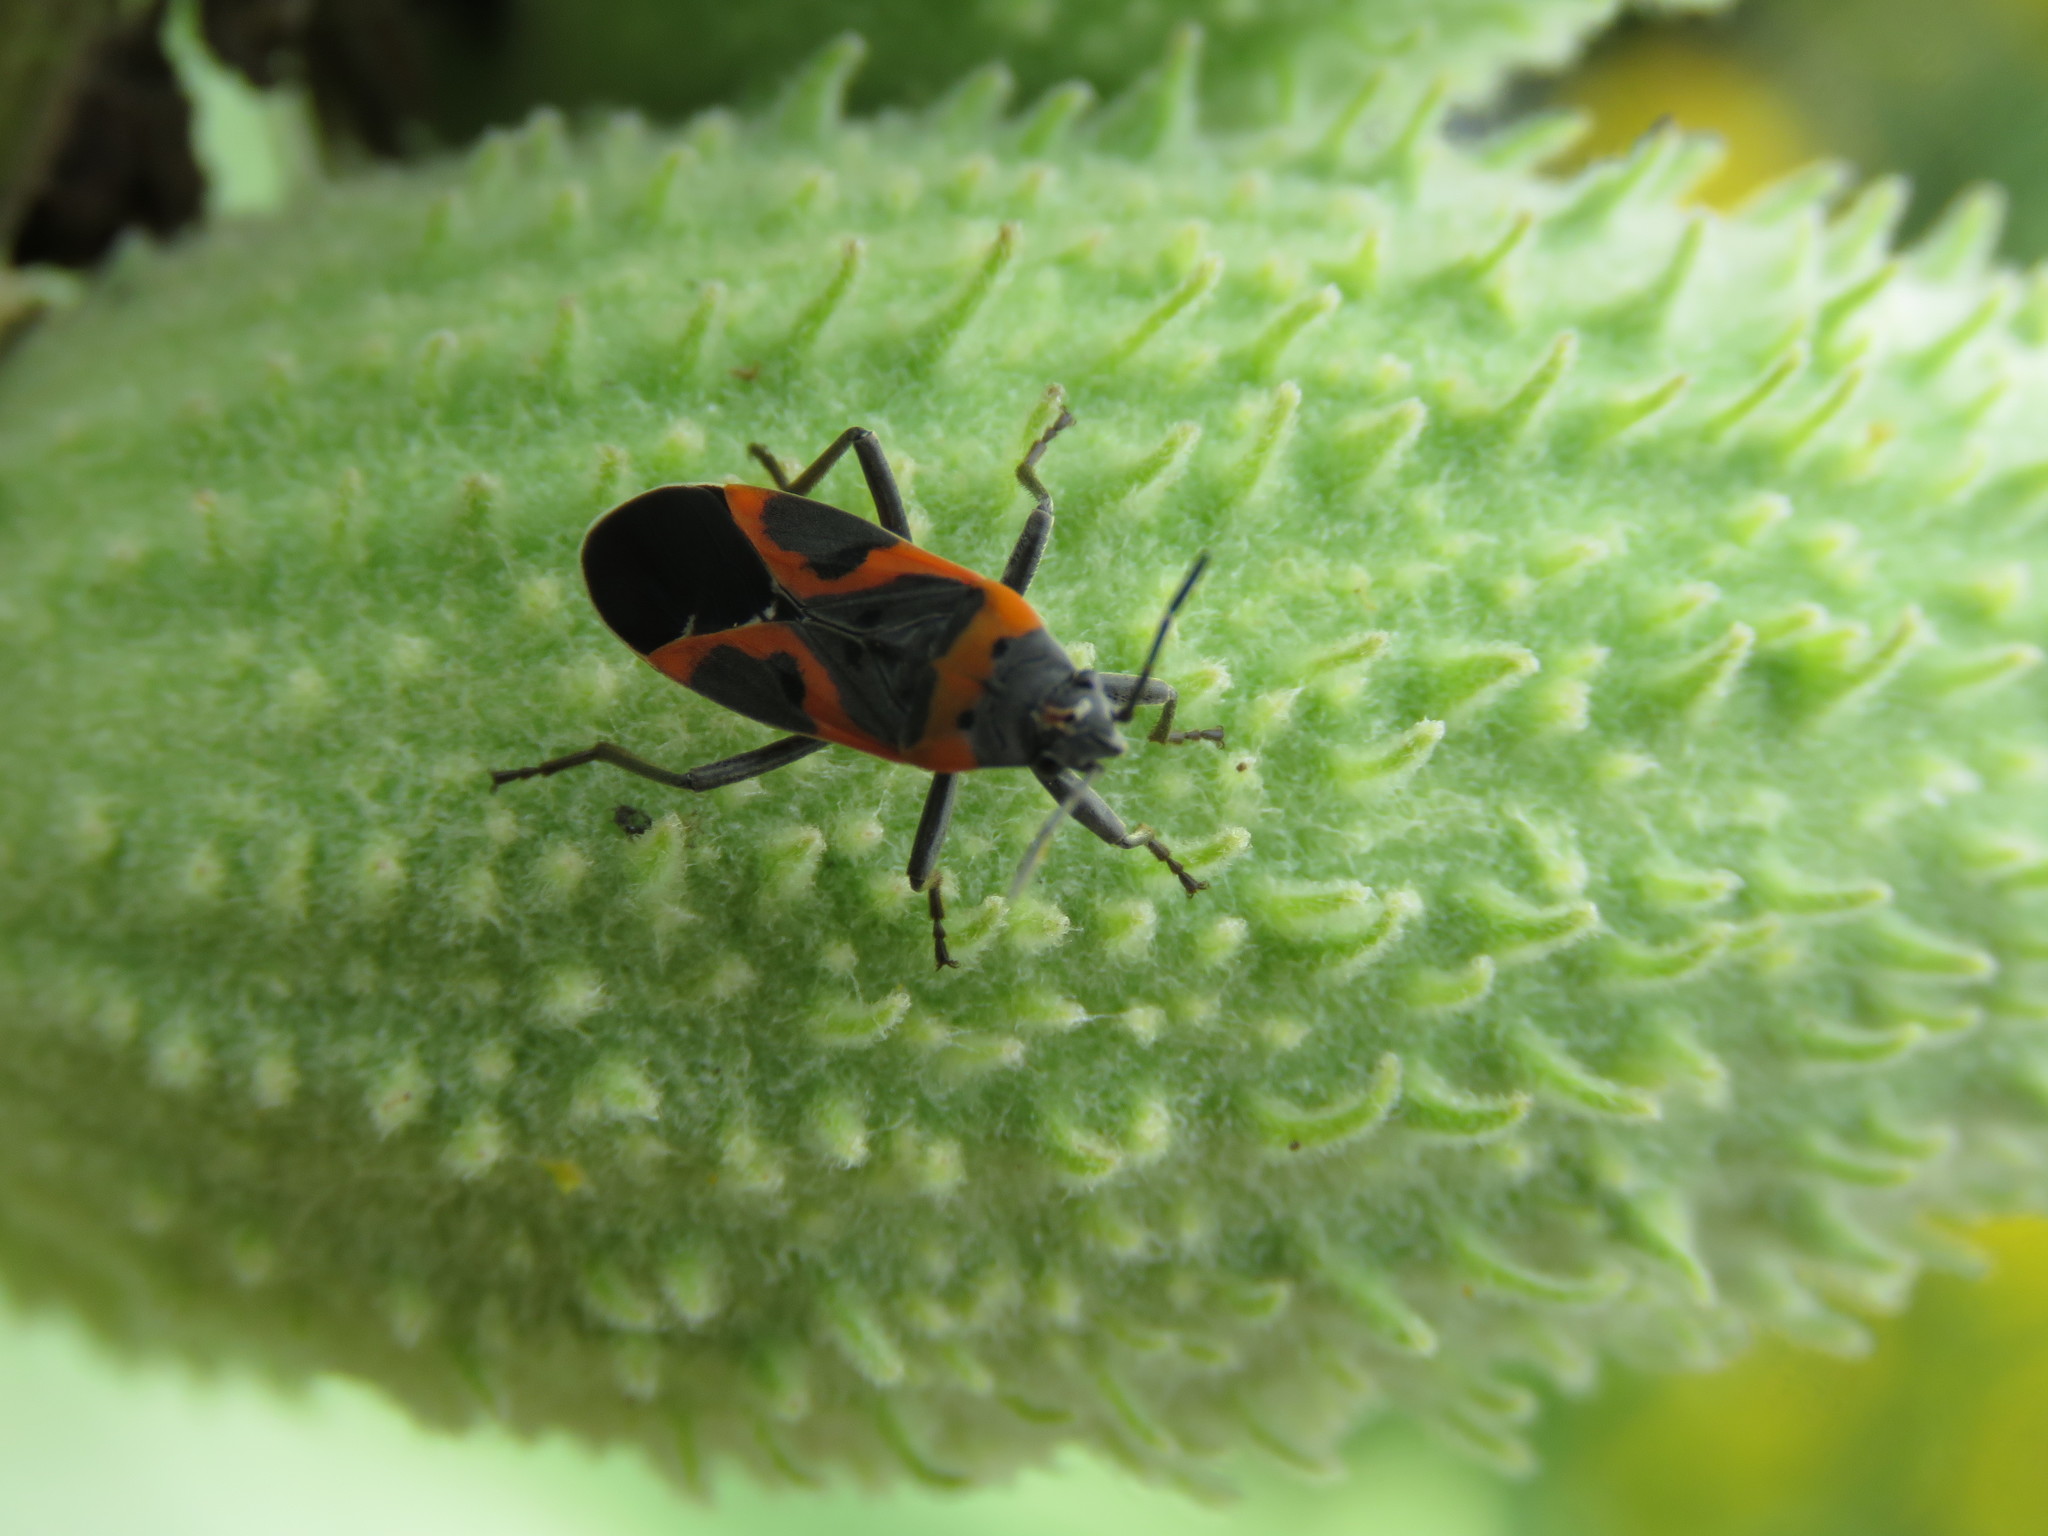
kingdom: Animalia
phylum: Arthropoda
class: Insecta
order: Hemiptera
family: Lygaeidae
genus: Lygaeus
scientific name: Lygaeus kalmii
